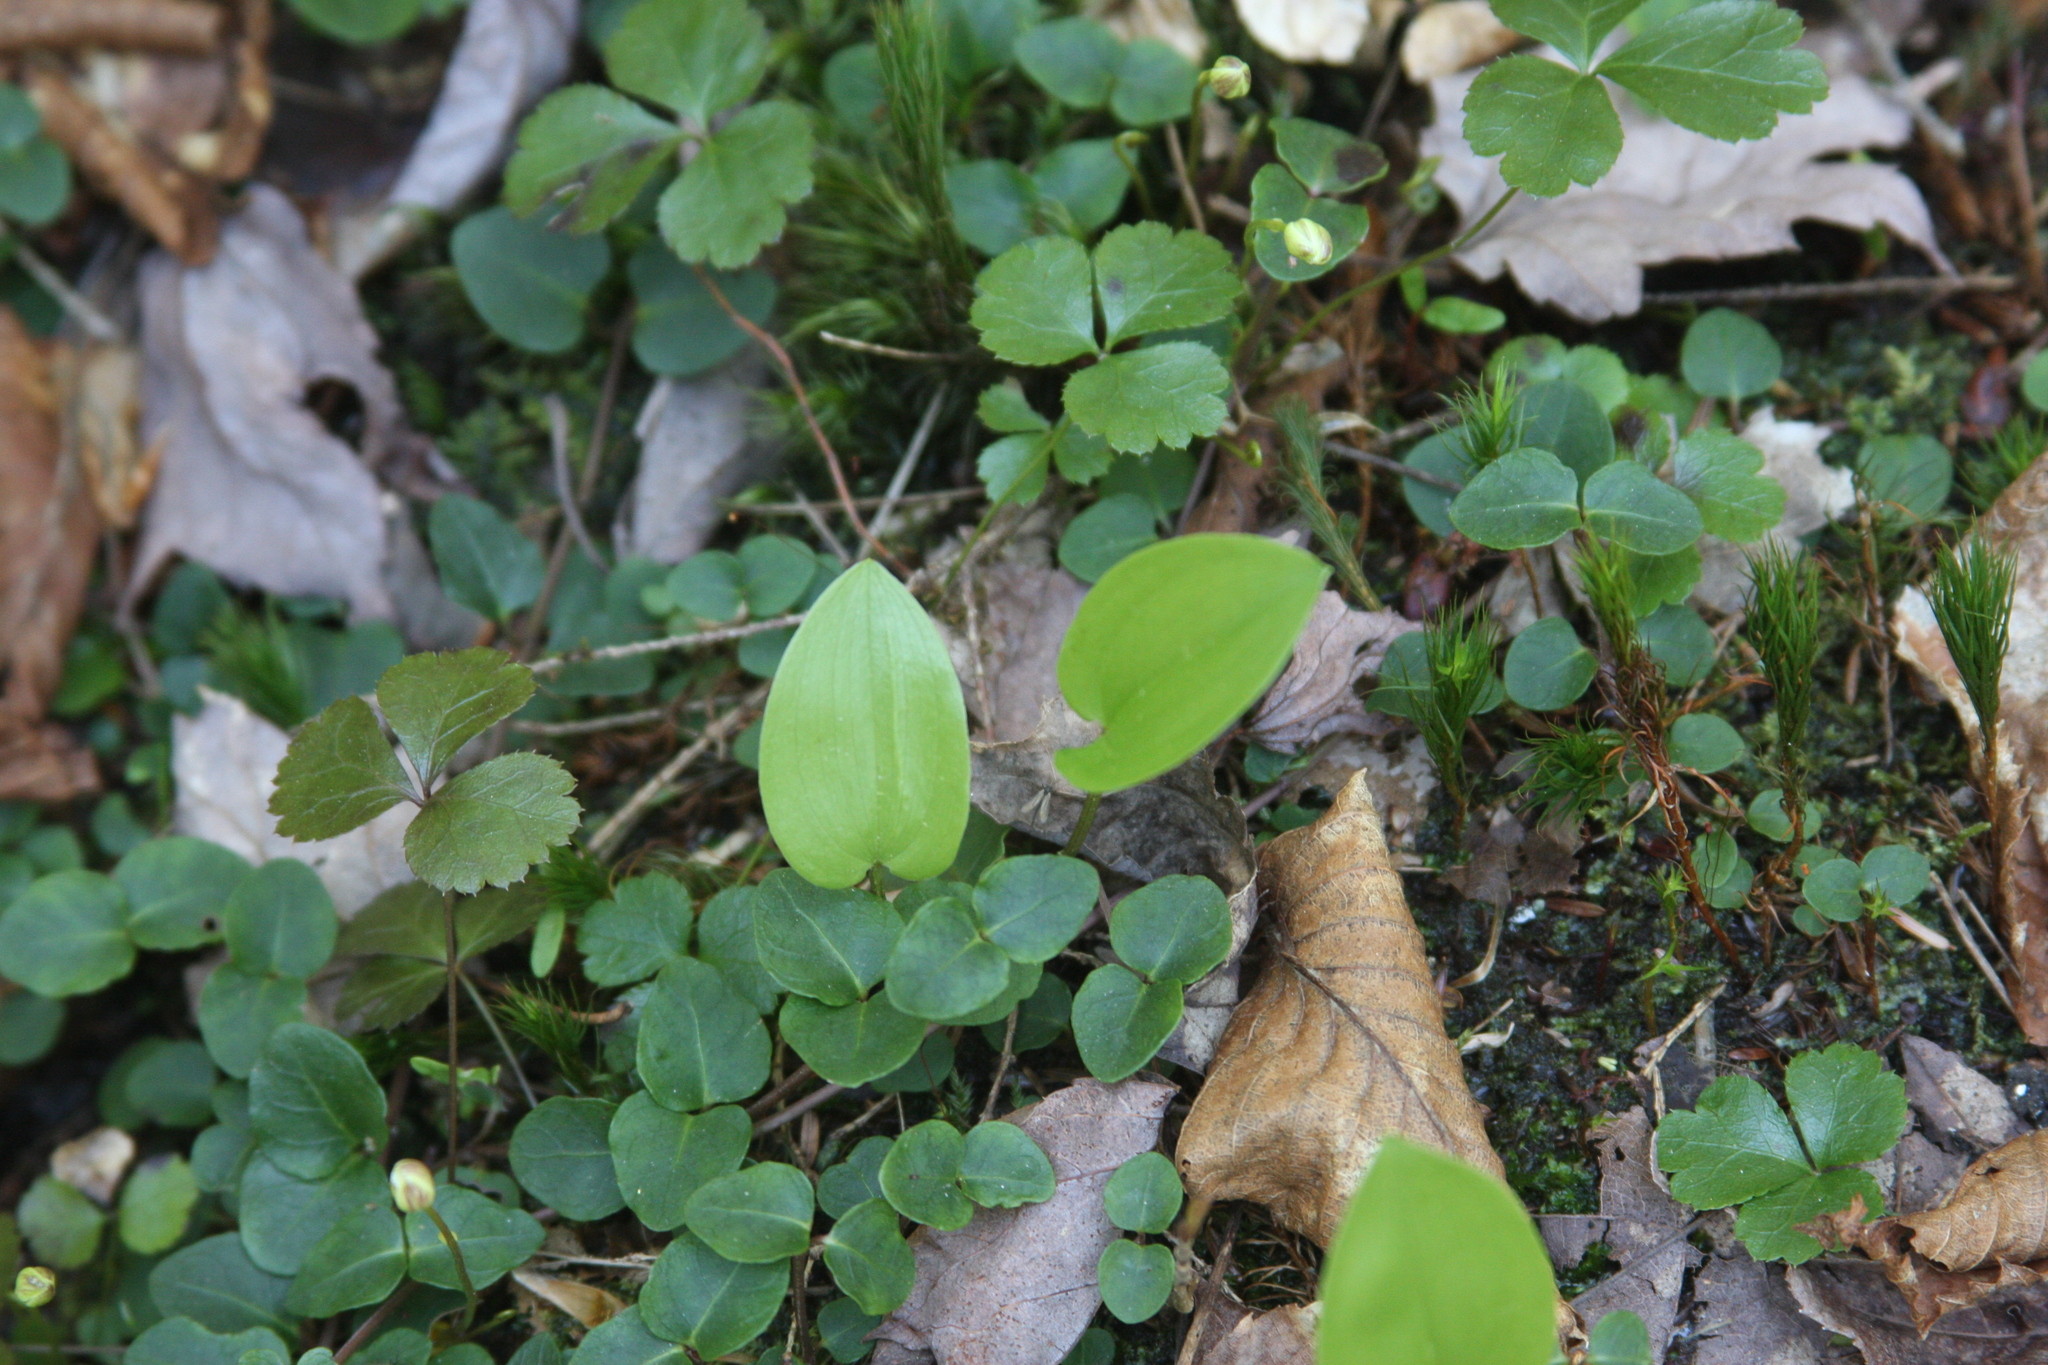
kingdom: Plantae
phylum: Tracheophyta
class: Liliopsida
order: Asparagales
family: Asparagaceae
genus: Maianthemum
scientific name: Maianthemum canadense
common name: False lily-of-the-valley
